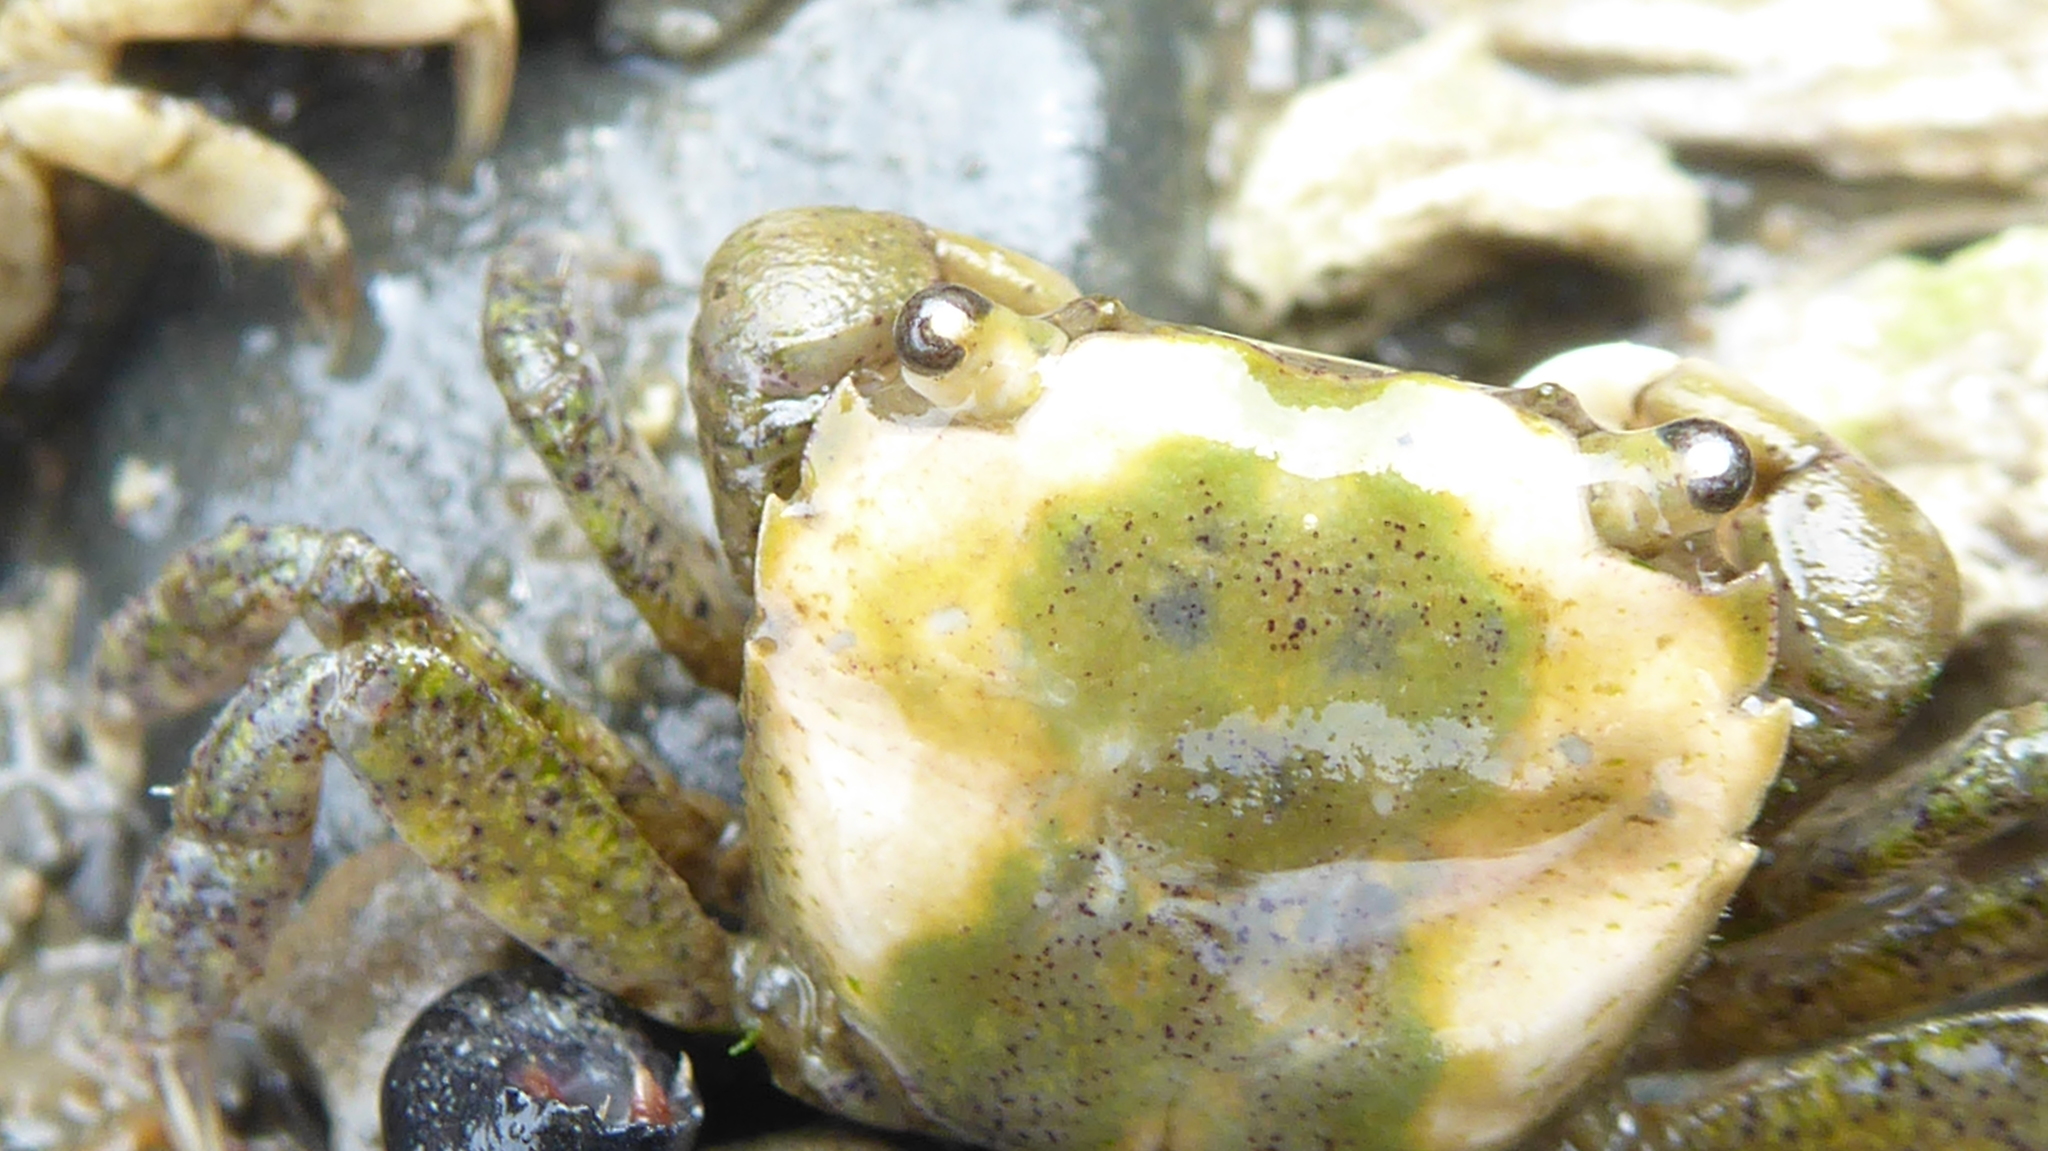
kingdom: Animalia
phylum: Arthropoda
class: Malacostraca
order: Decapoda
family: Varunidae
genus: Hemigrapsus
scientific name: Hemigrapsus oregonensis
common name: Yellow shore crab
